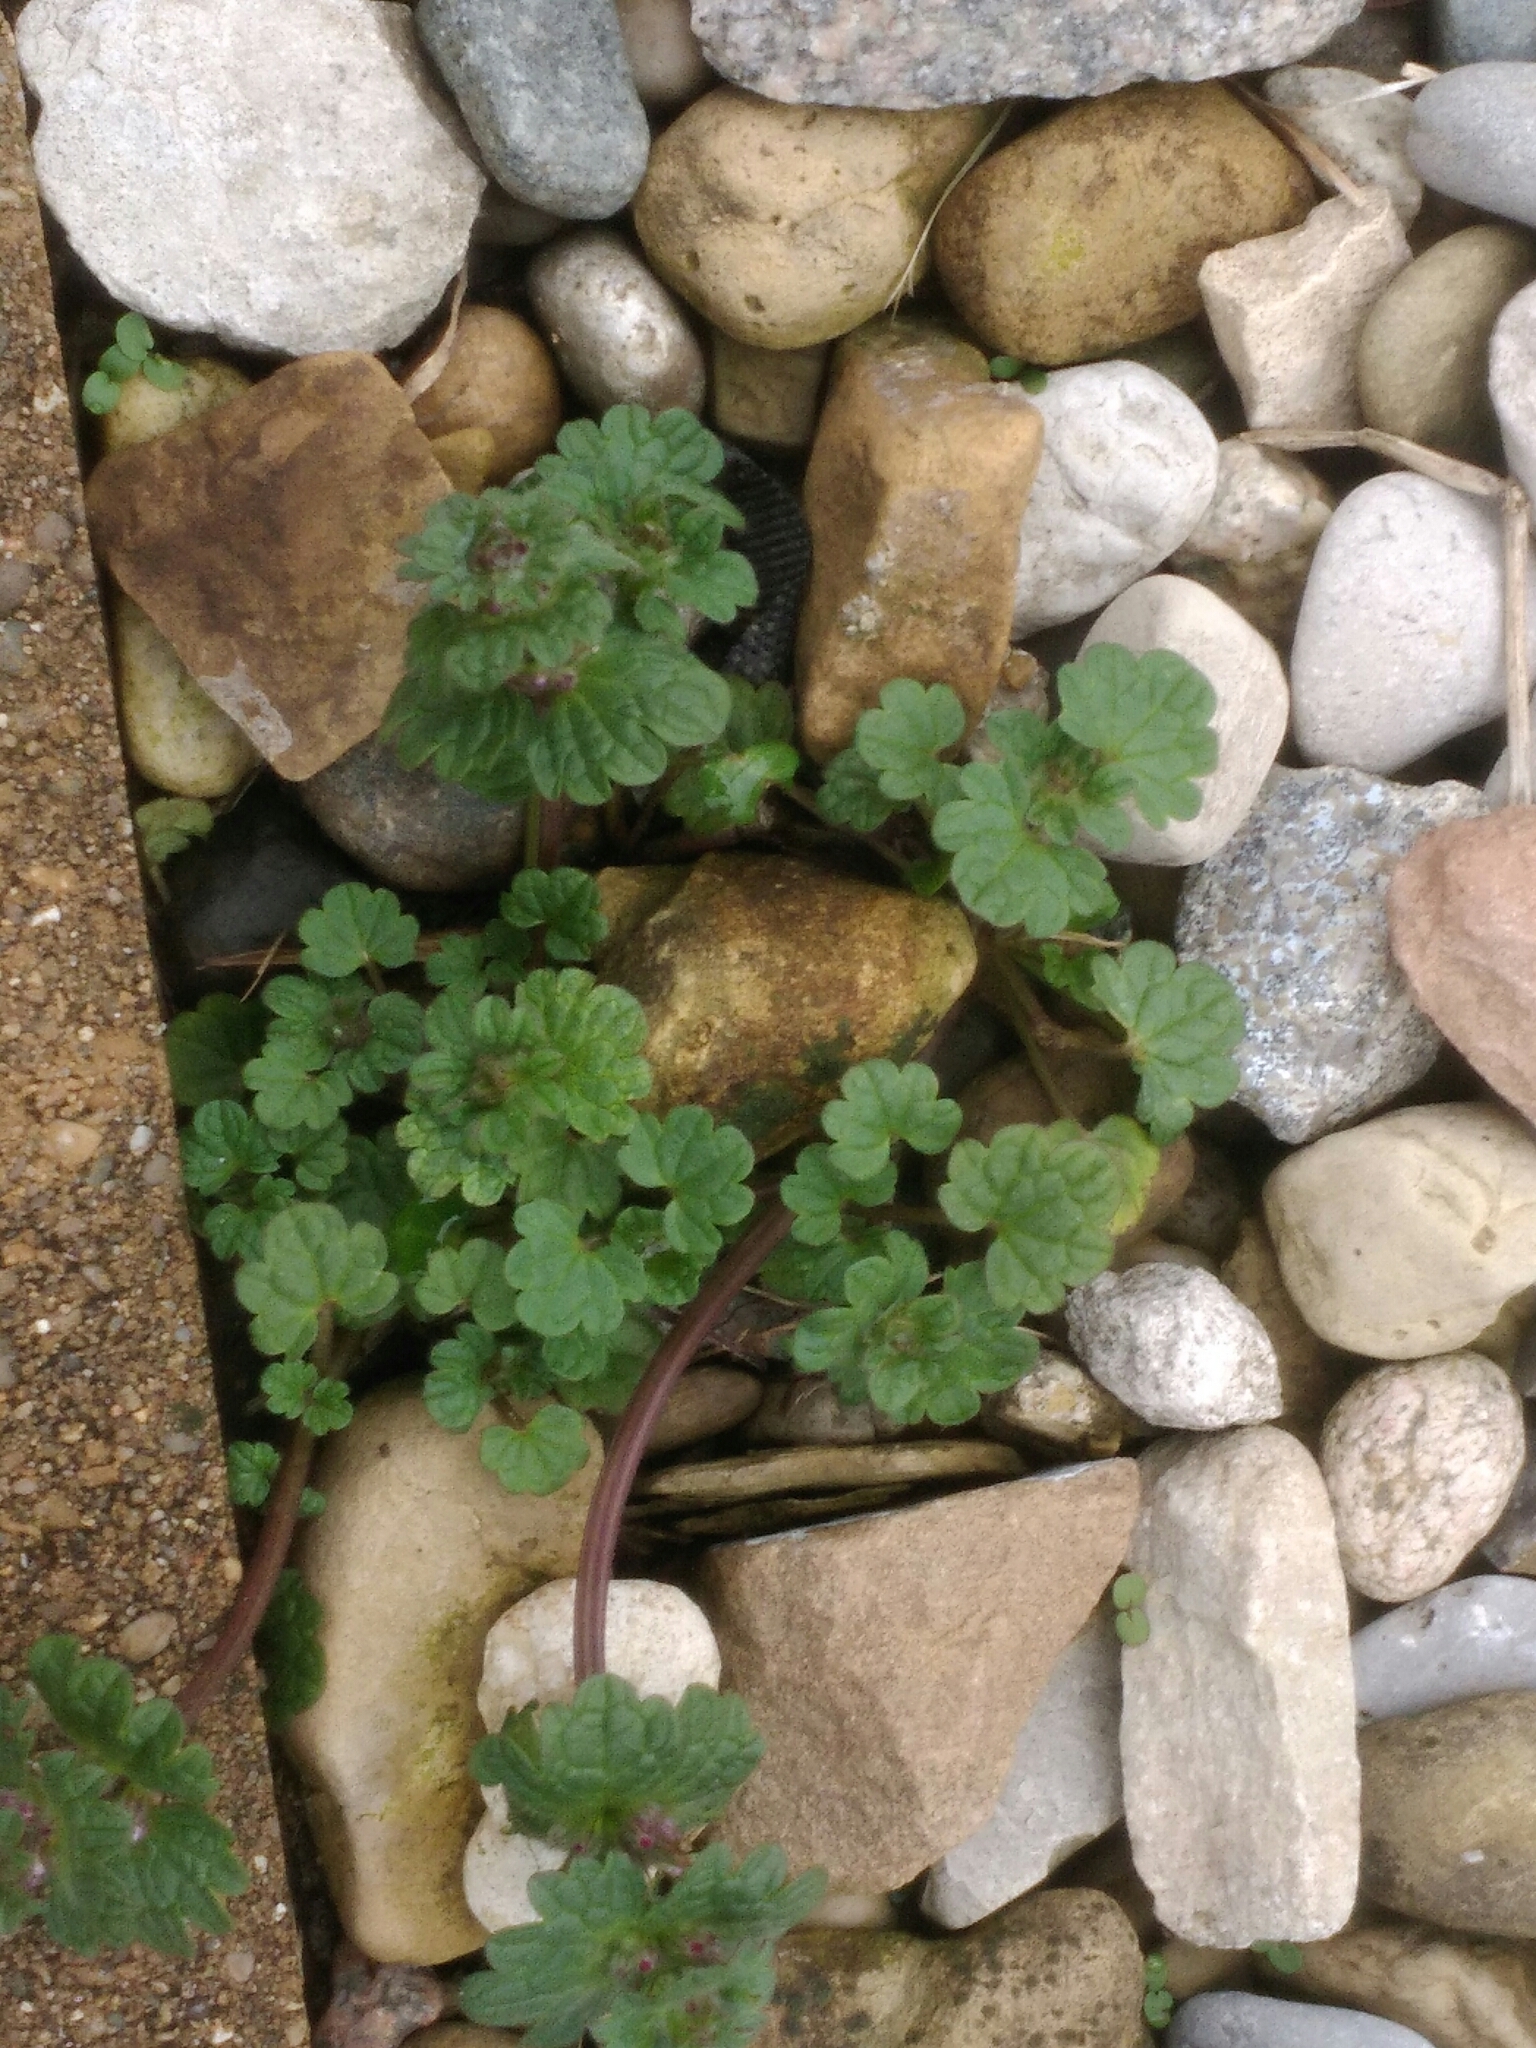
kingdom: Plantae
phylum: Tracheophyta
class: Magnoliopsida
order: Lamiales
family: Lamiaceae
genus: Lamium
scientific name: Lamium amplexicaule
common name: Henbit dead-nettle
